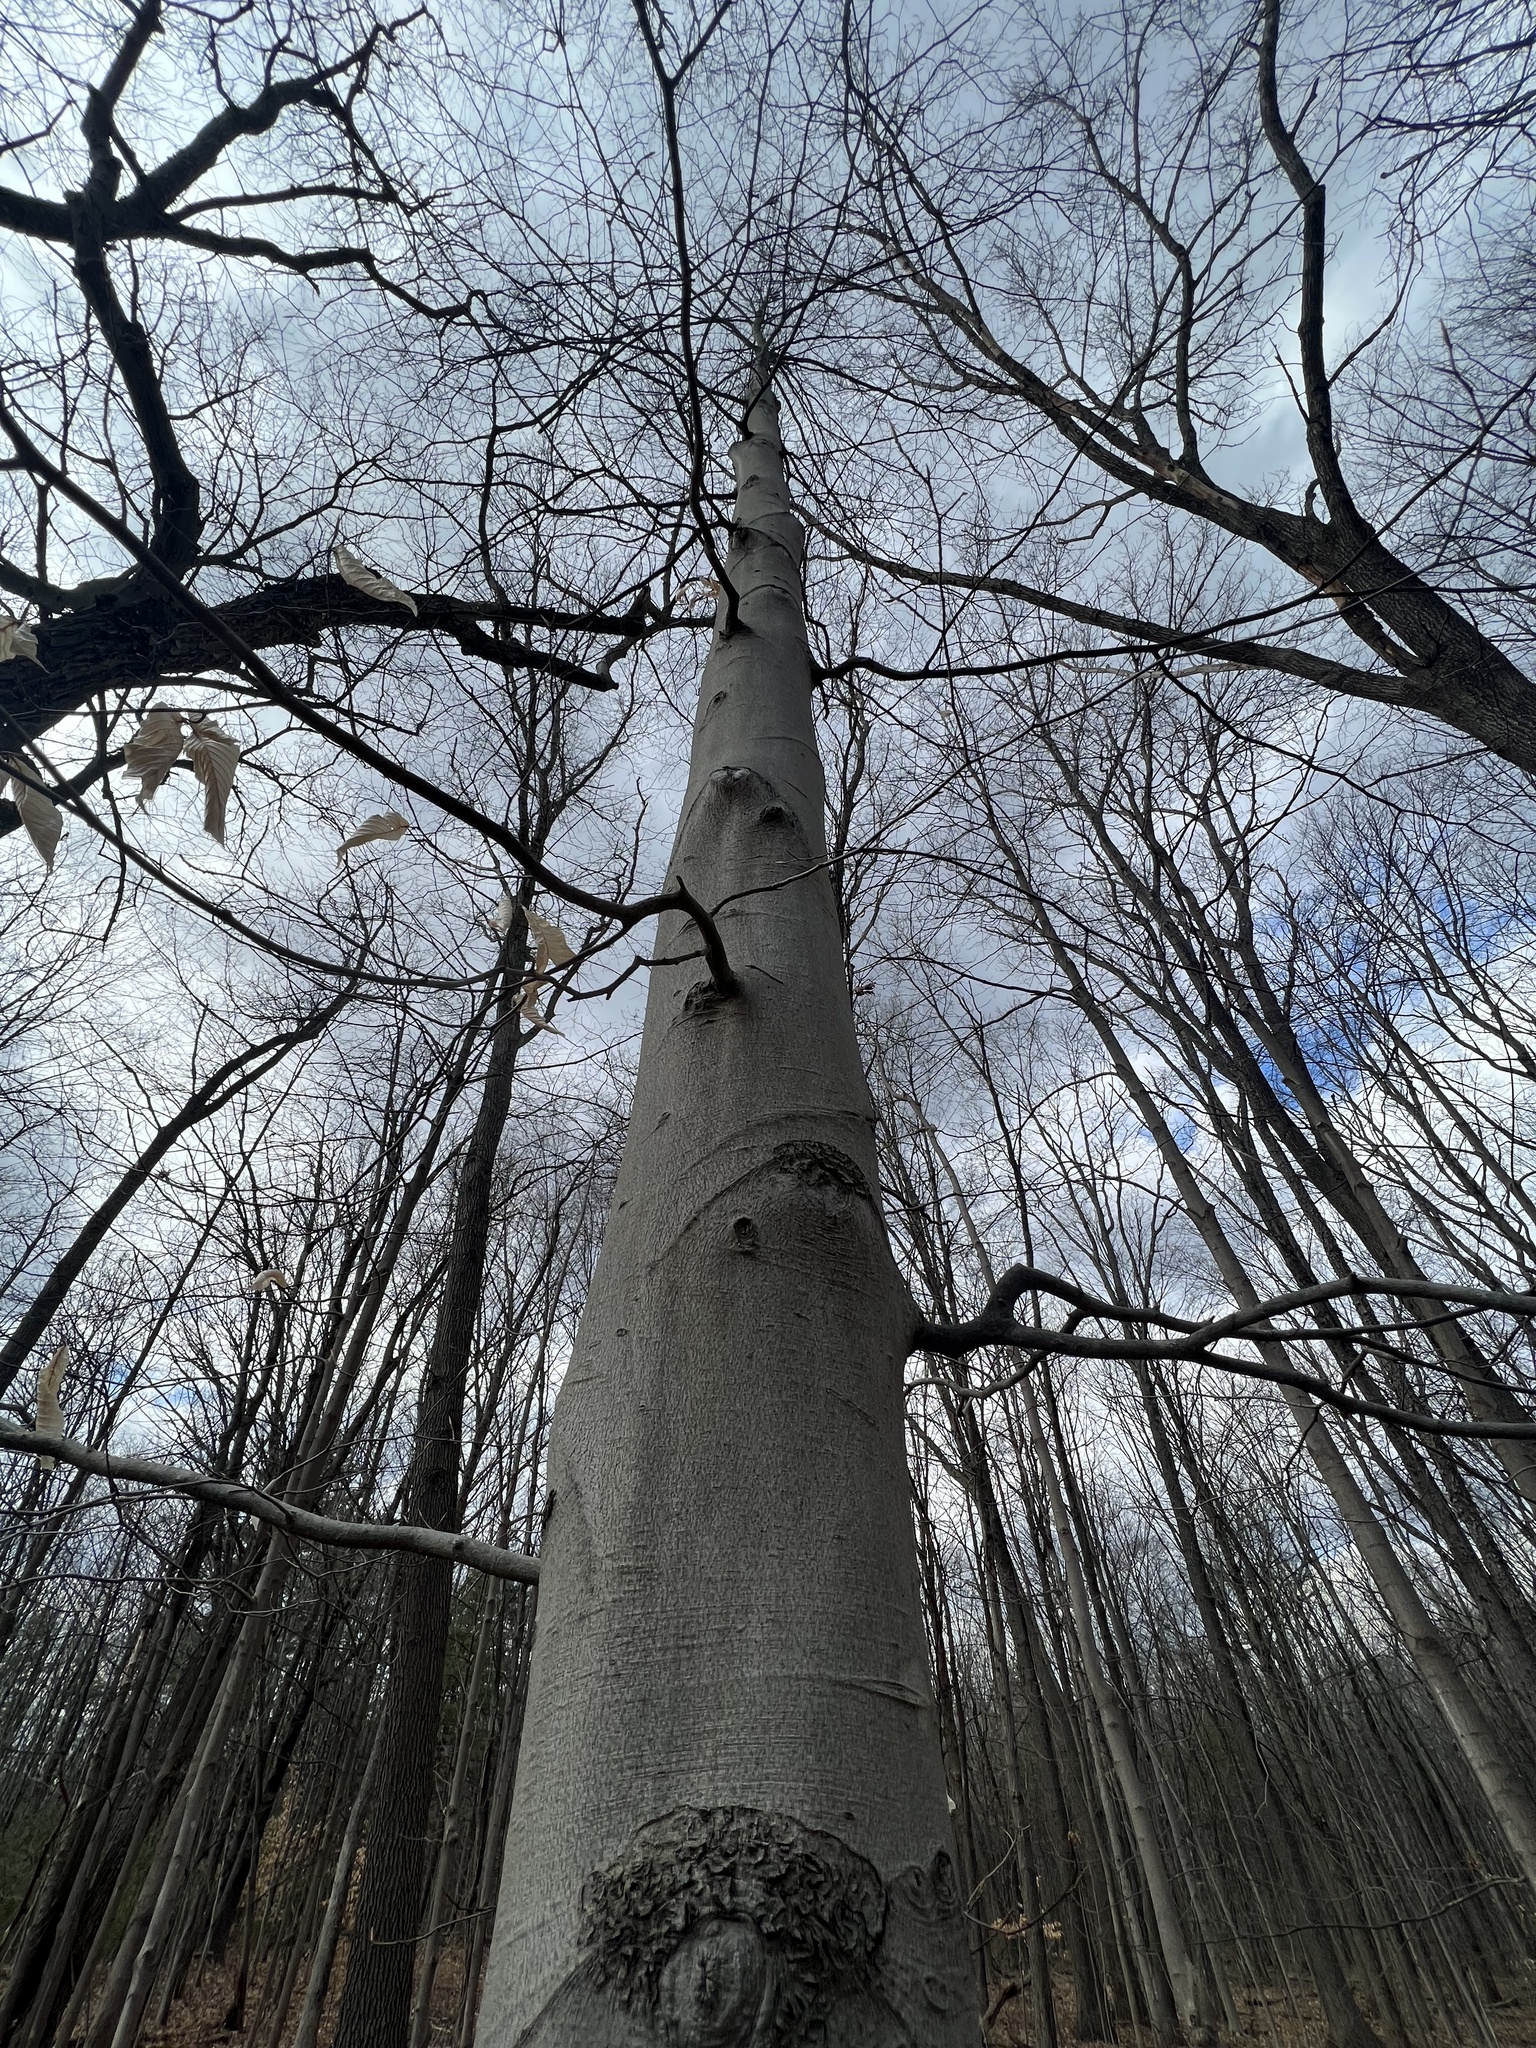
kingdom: Plantae
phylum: Tracheophyta
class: Magnoliopsida
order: Fagales
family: Fagaceae
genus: Fagus
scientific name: Fagus grandifolia
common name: American beech
